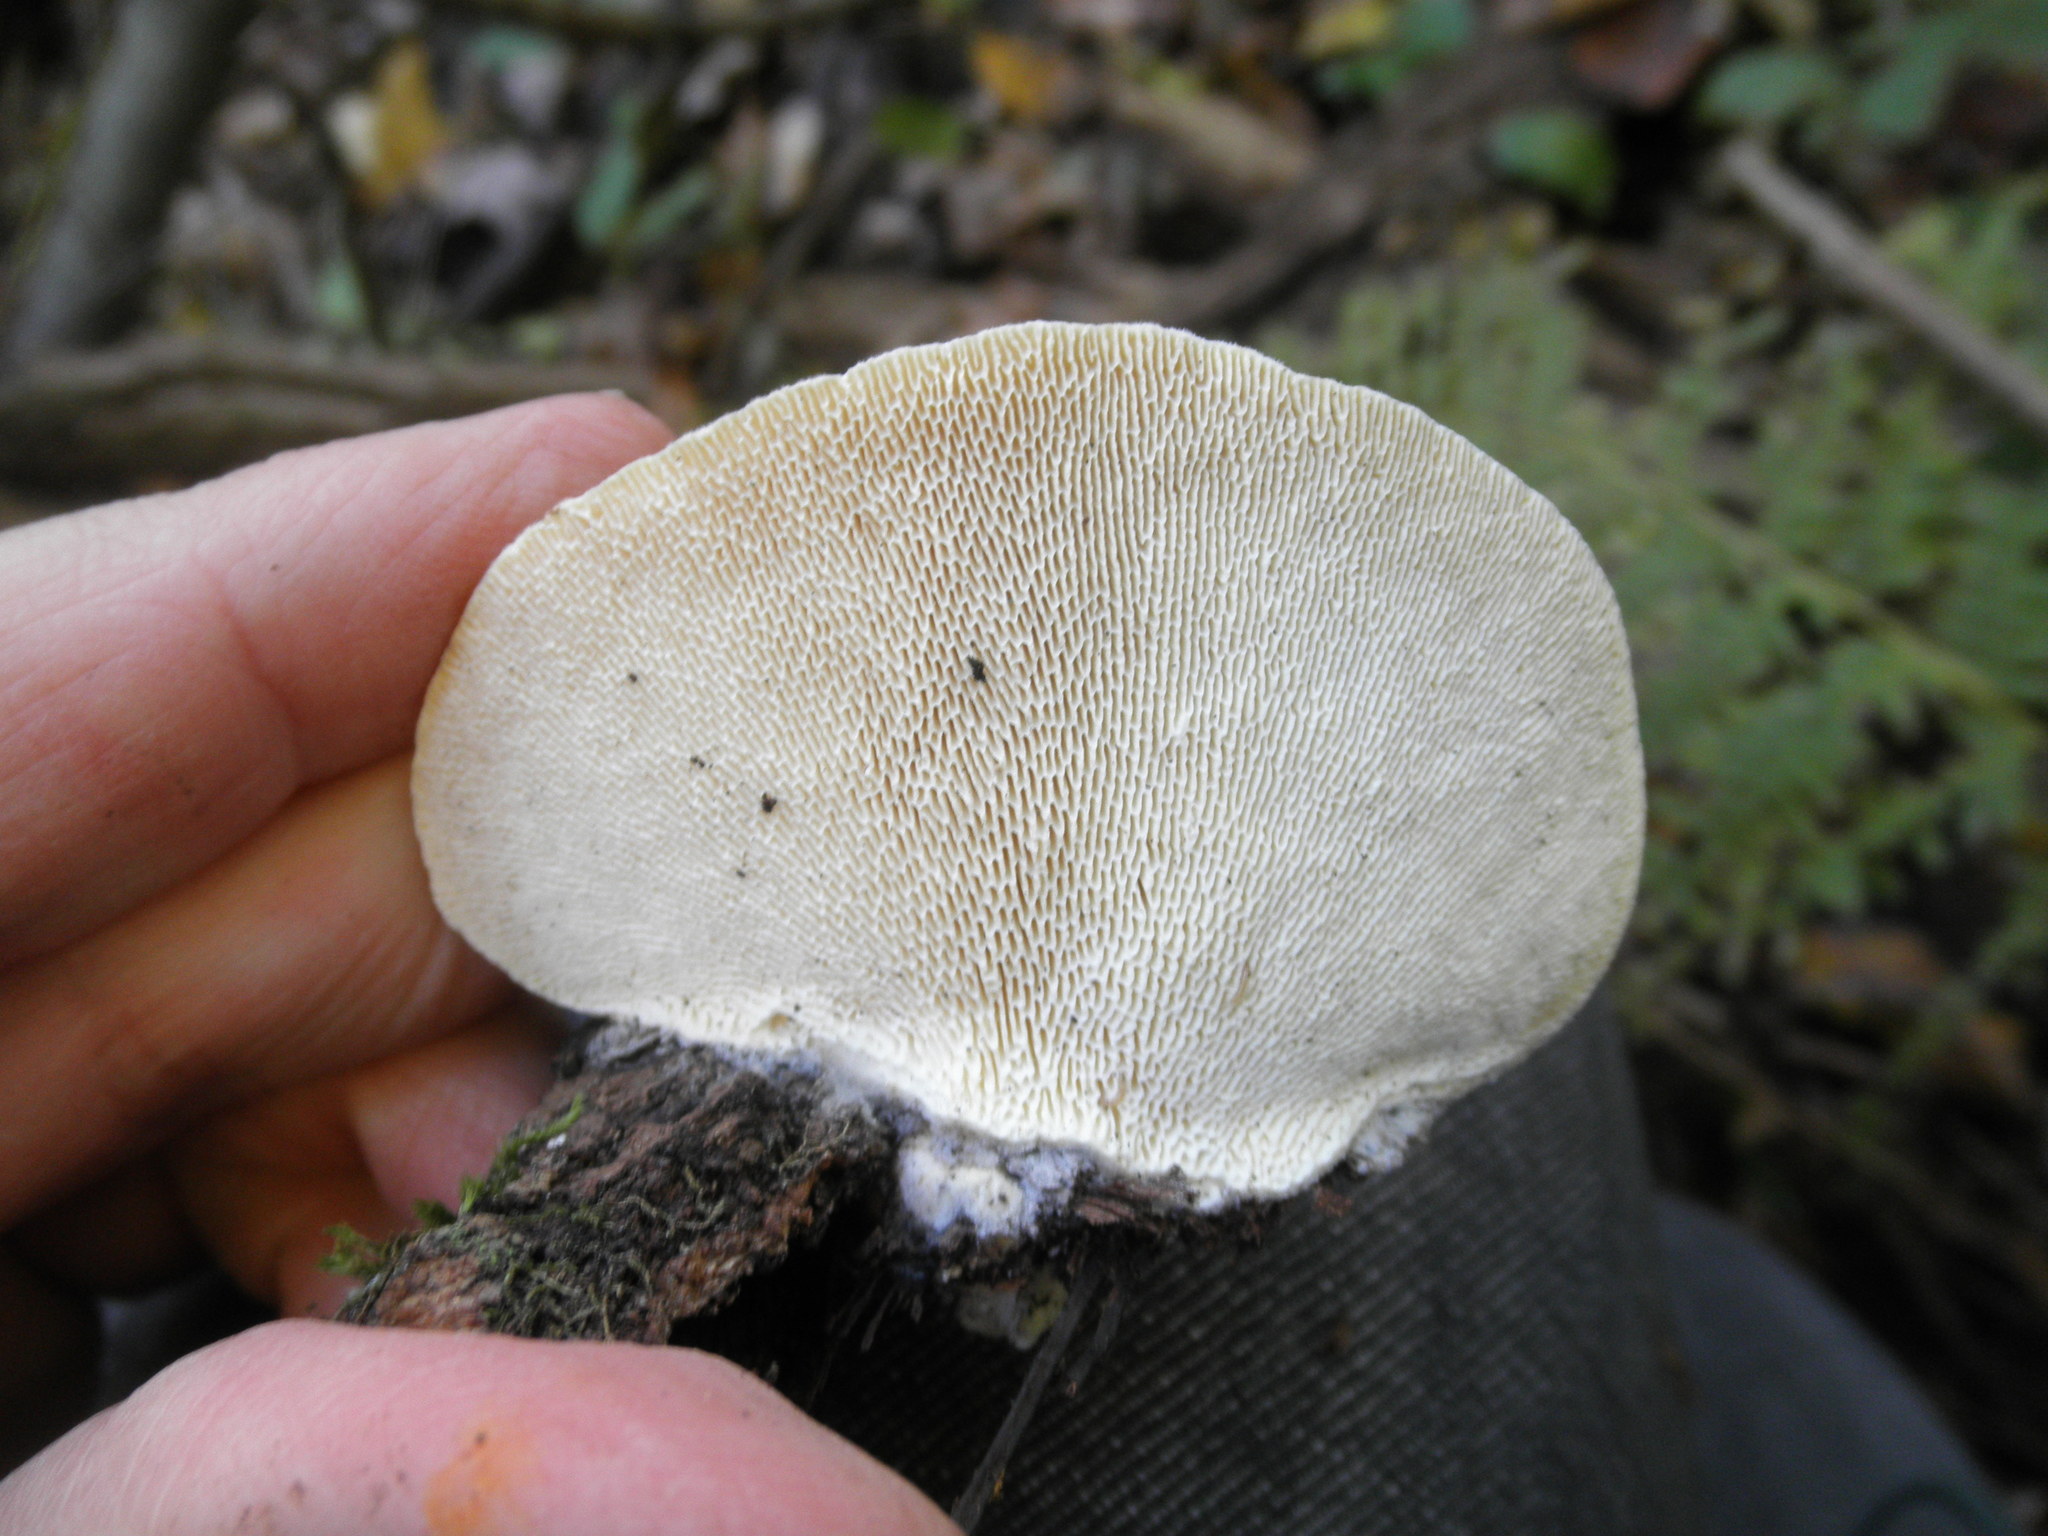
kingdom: Fungi
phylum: Basidiomycota
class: Agaricomycetes
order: Polyporales
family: Polyporaceae
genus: Trametes
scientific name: Trametes gibbosa
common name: Lumpy bracket
